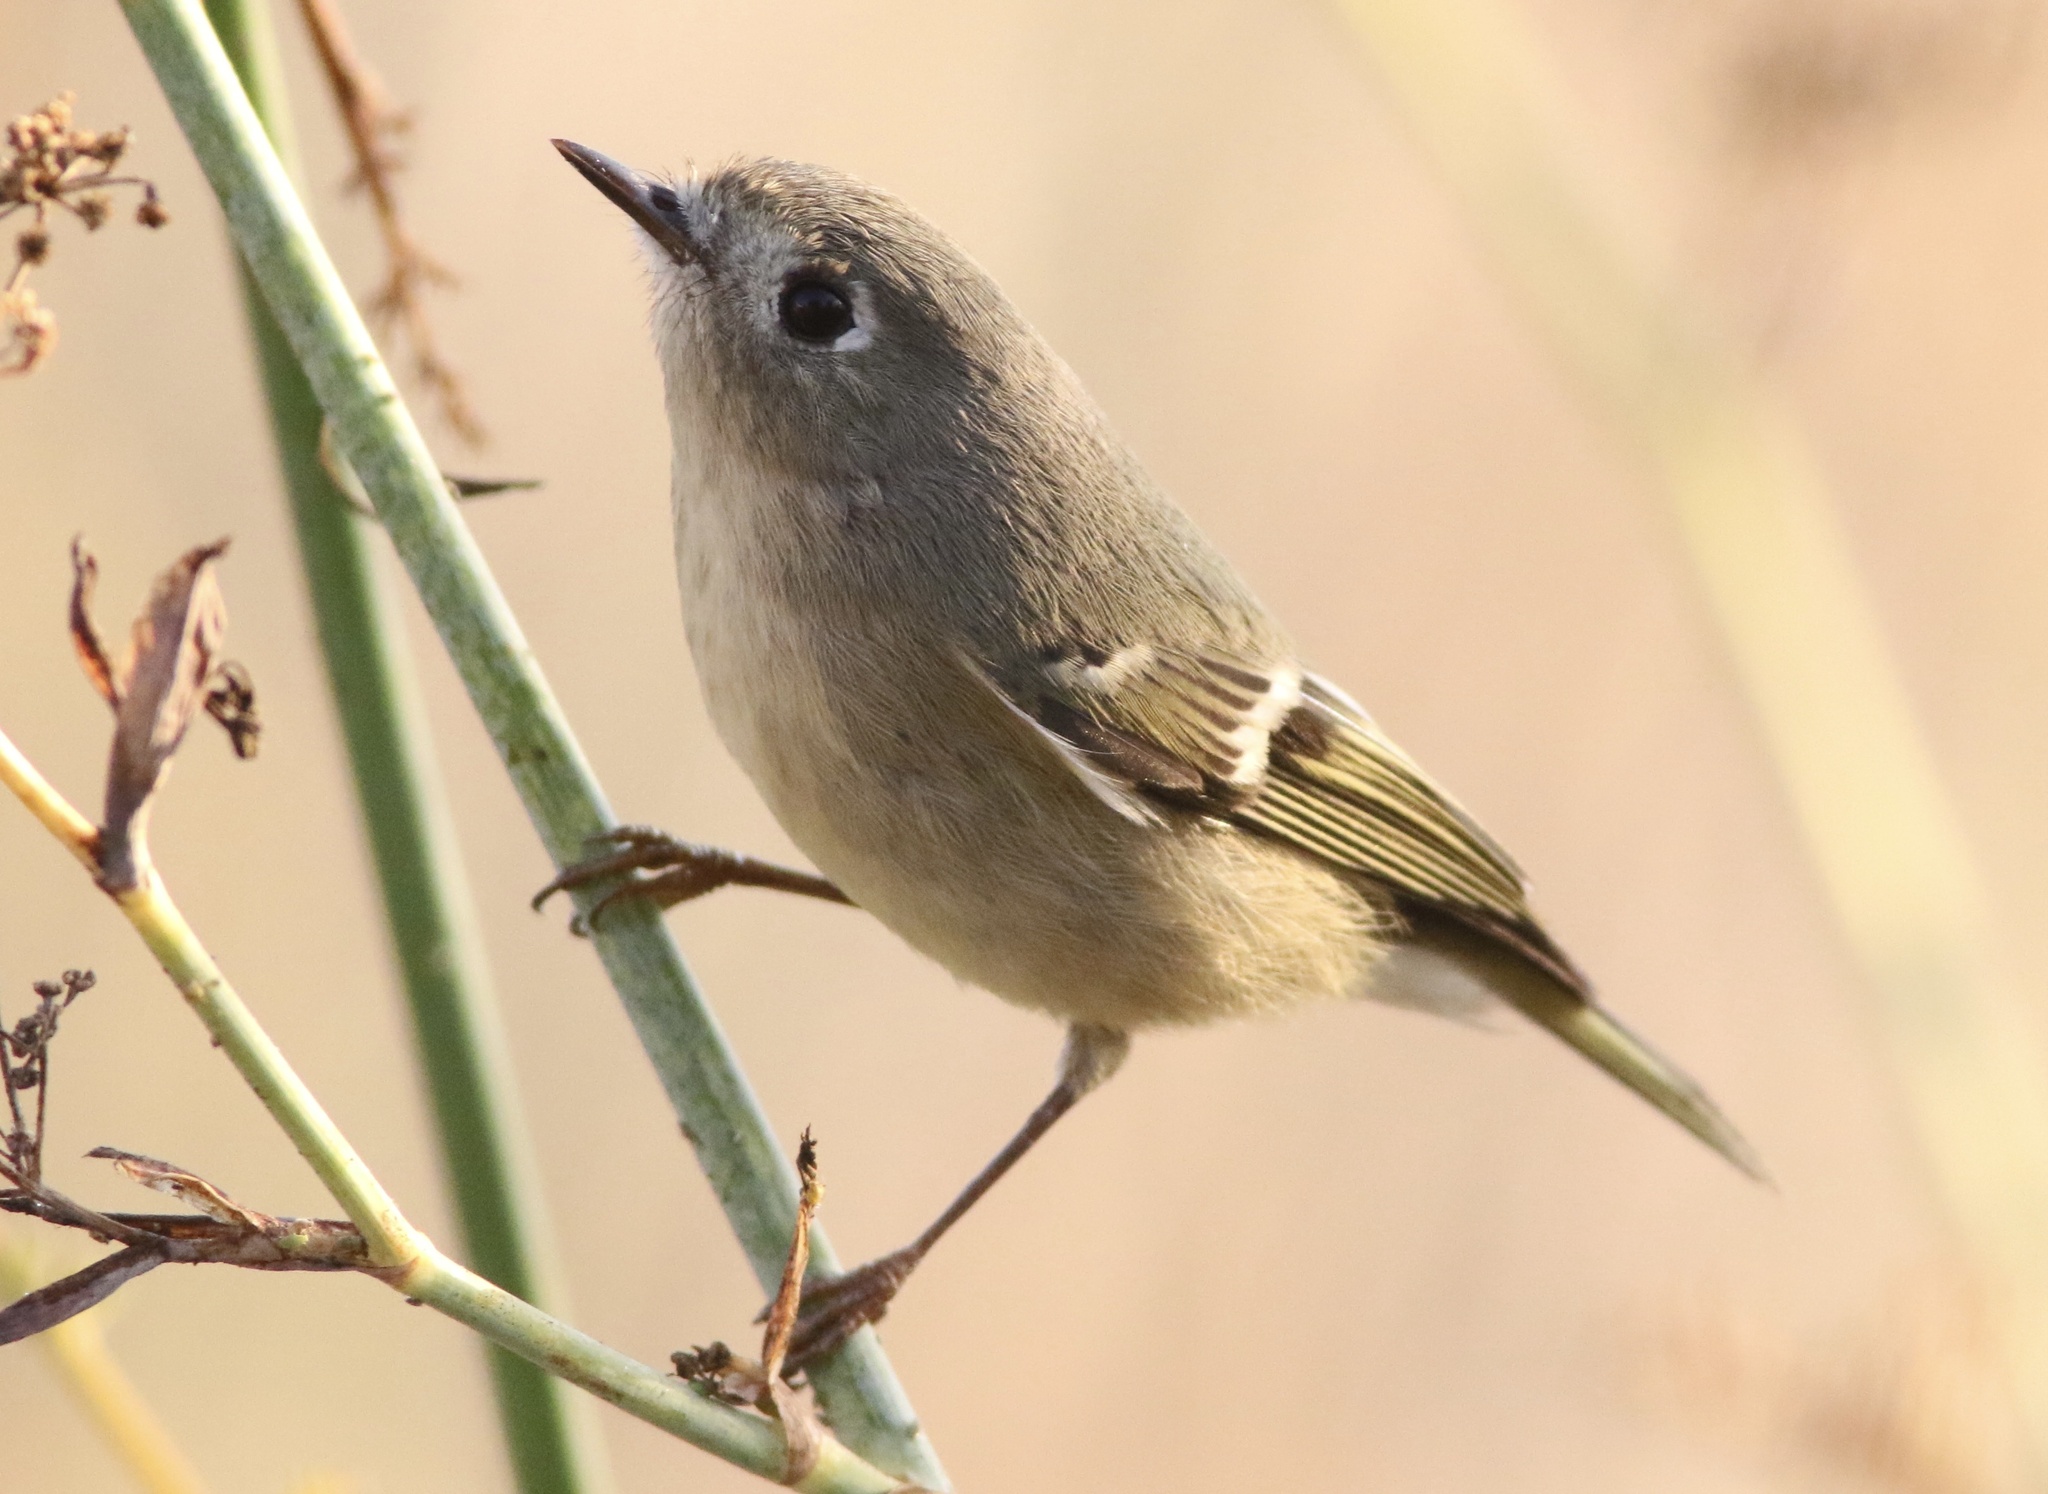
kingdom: Animalia
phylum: Chordata
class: Aves
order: Passeriformes
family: Regulidae
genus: Regulus
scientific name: Regulus calendula
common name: Ruby-crowned kinglet
